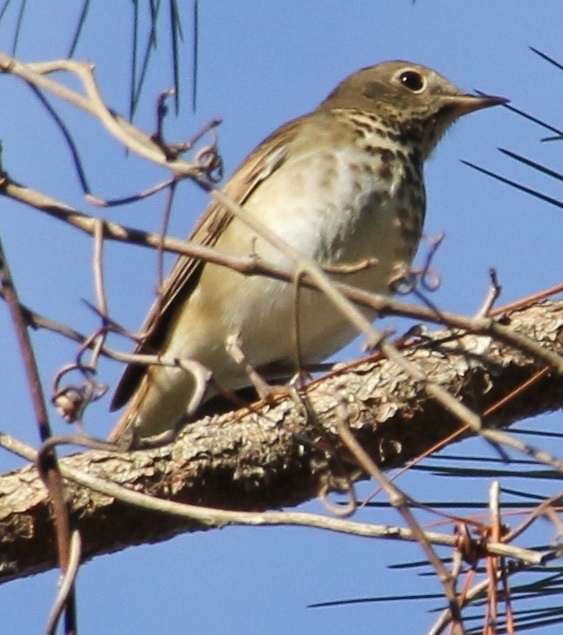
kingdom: Animalia
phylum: Chordata
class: Aves
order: Passeriformes
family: Turdidae
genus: Catharus
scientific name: Catharus guttatus
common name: Hermit thrush
